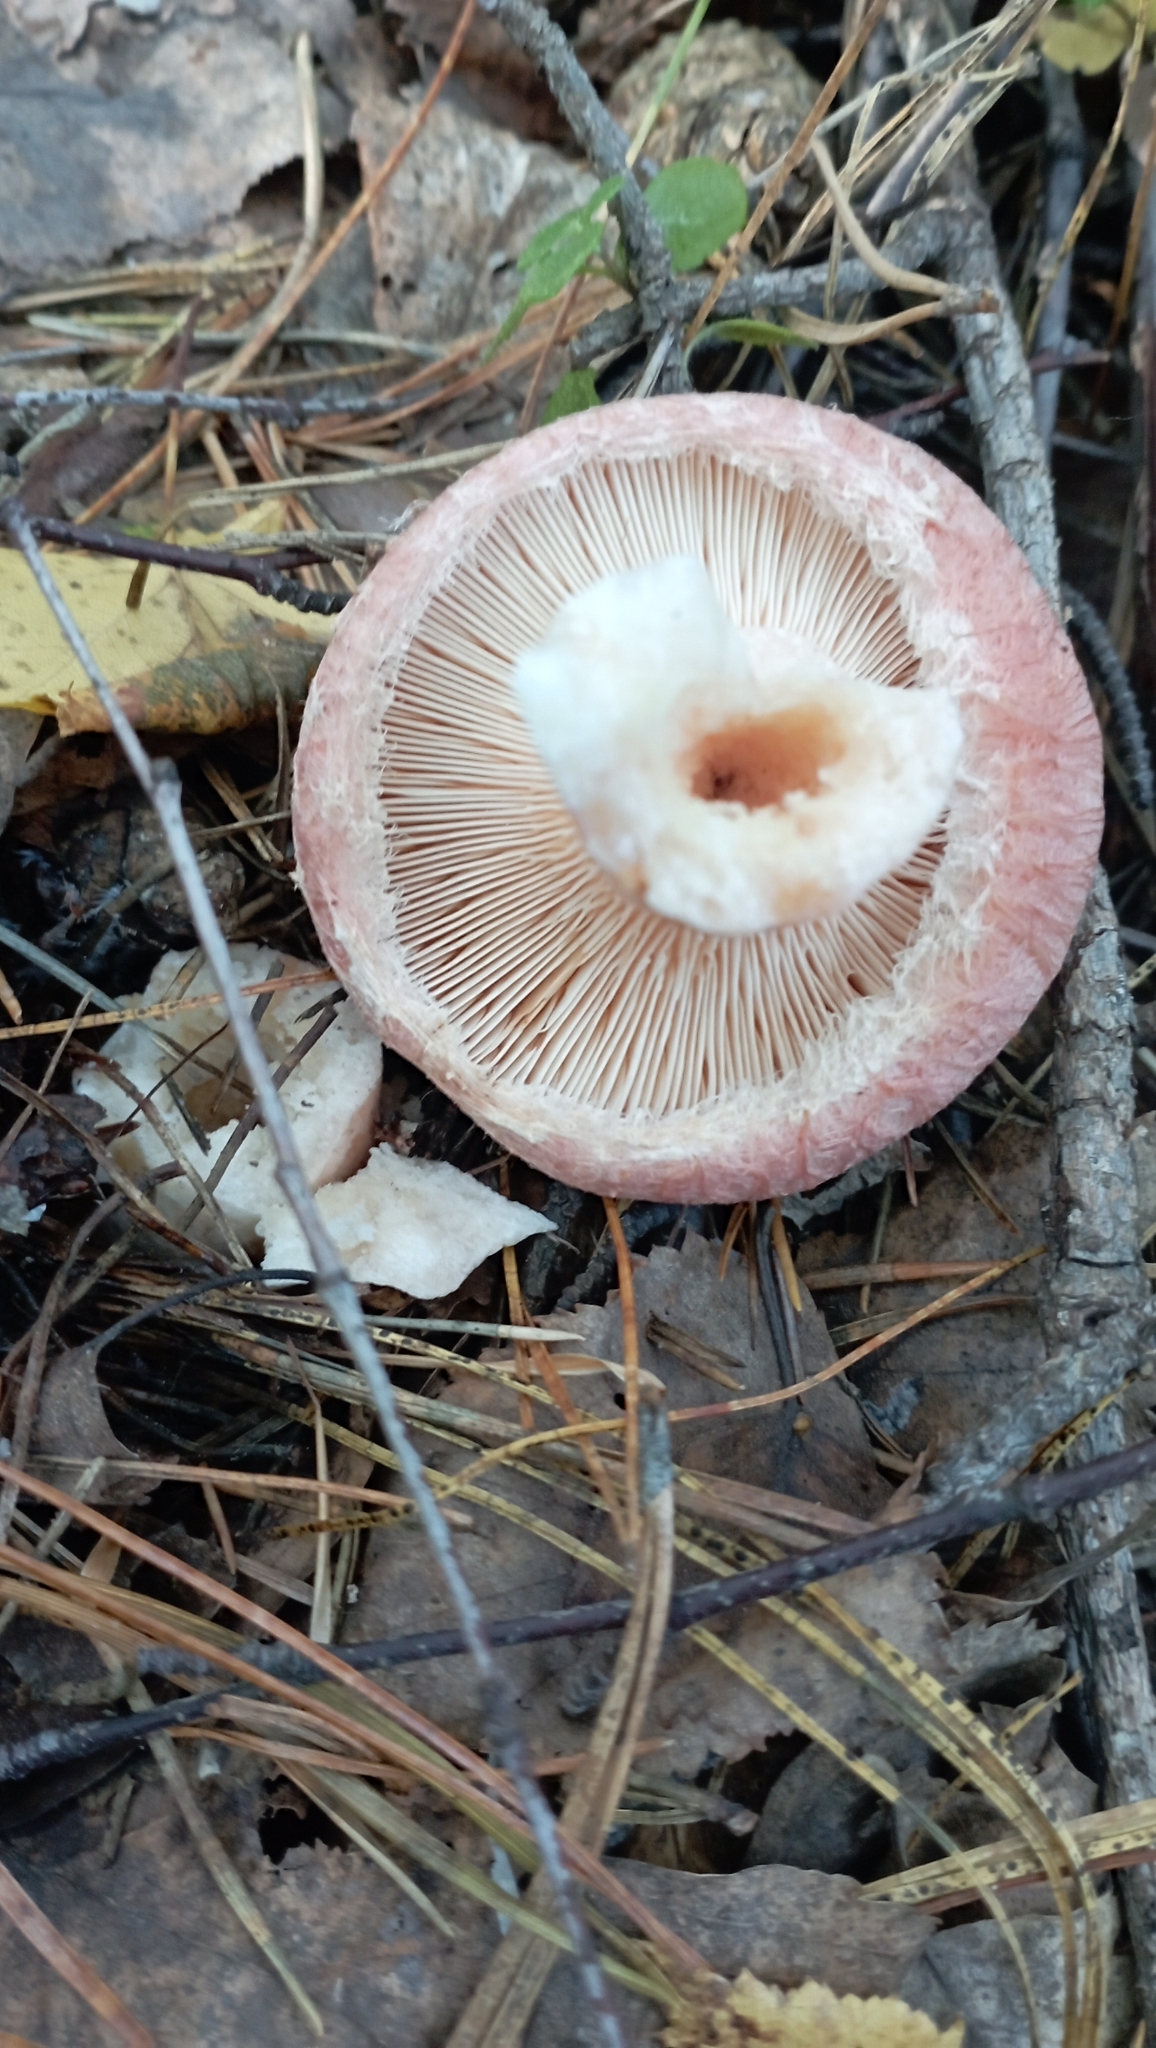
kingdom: Fungi
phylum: Basidiomycota
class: Agaricomycetes
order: Russulales
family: Russulaceae
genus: Lactarius
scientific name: Lactarius torminosus
